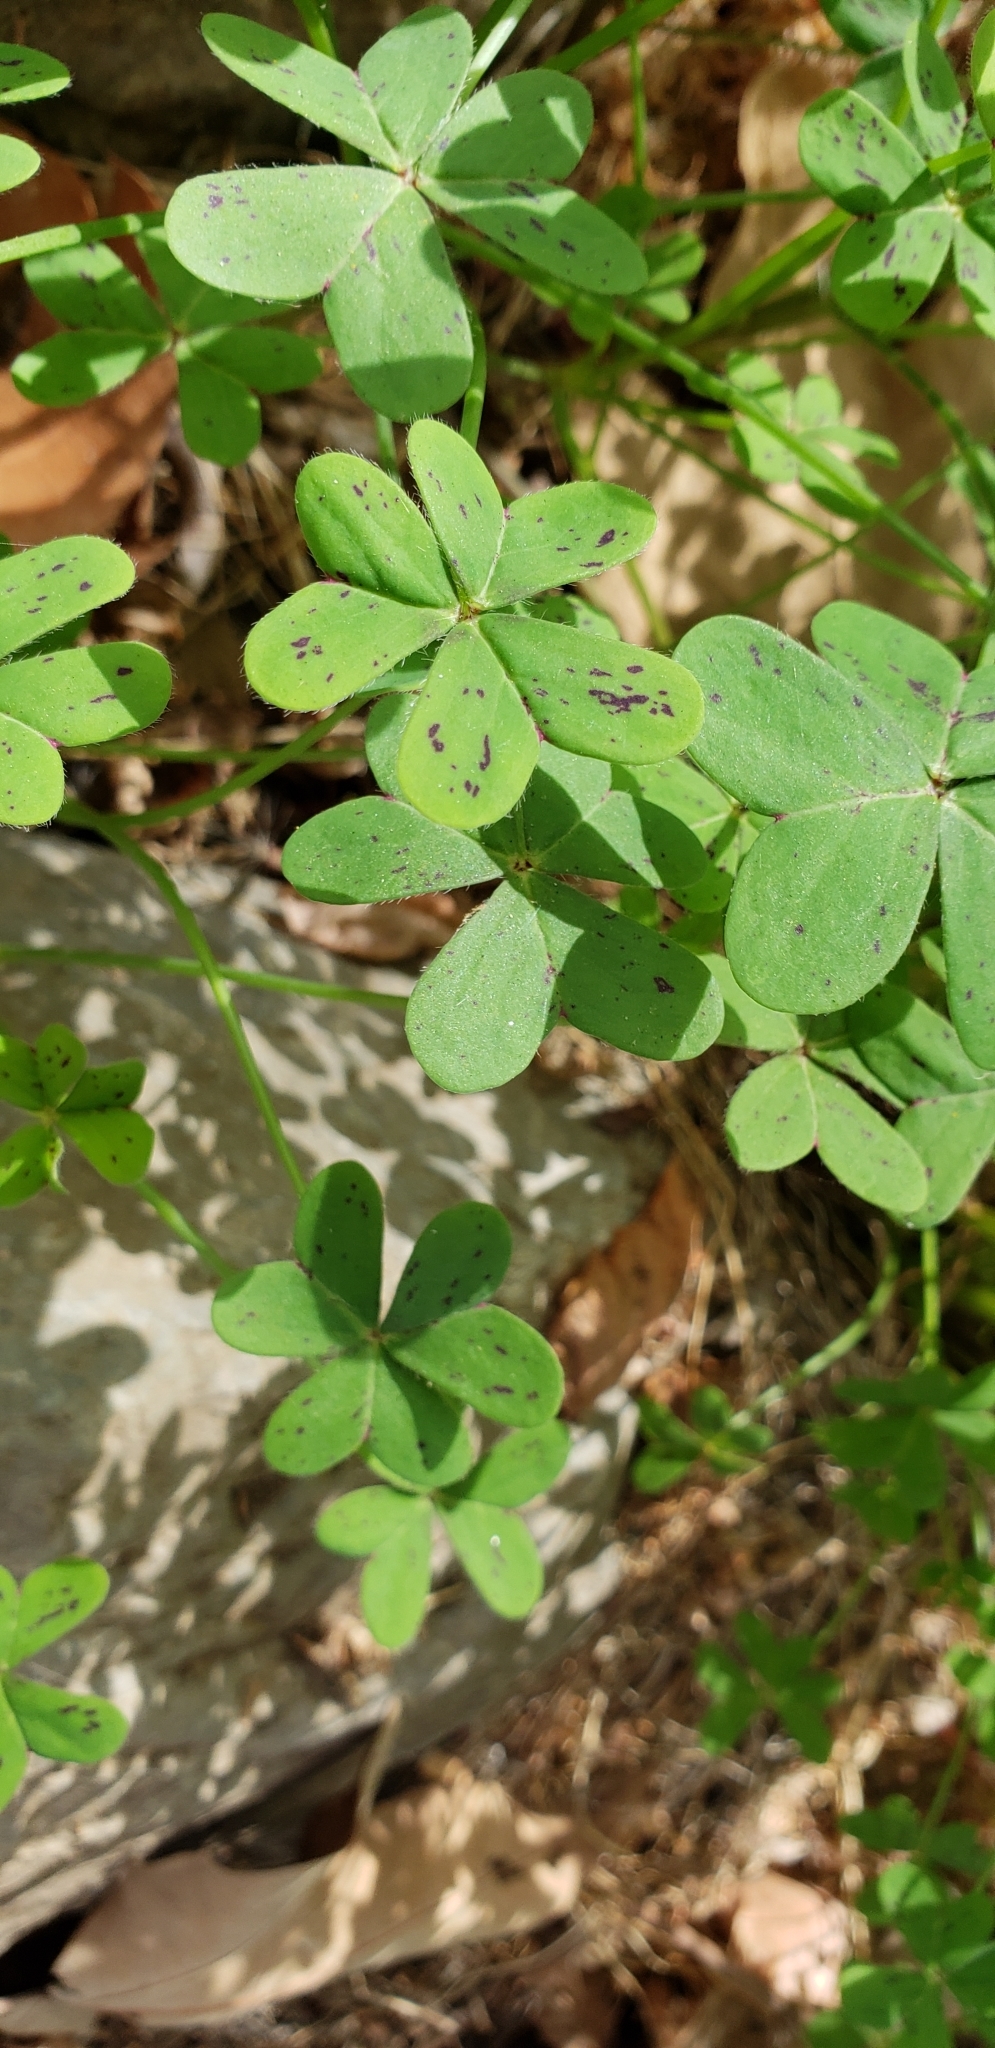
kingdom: Plantae
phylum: Tracheophyta
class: Magnoliopsida
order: Oxalidales
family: Oxalidaceae
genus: Oxalis
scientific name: Oxalis pes-caprae
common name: Bermuda-buttercup
